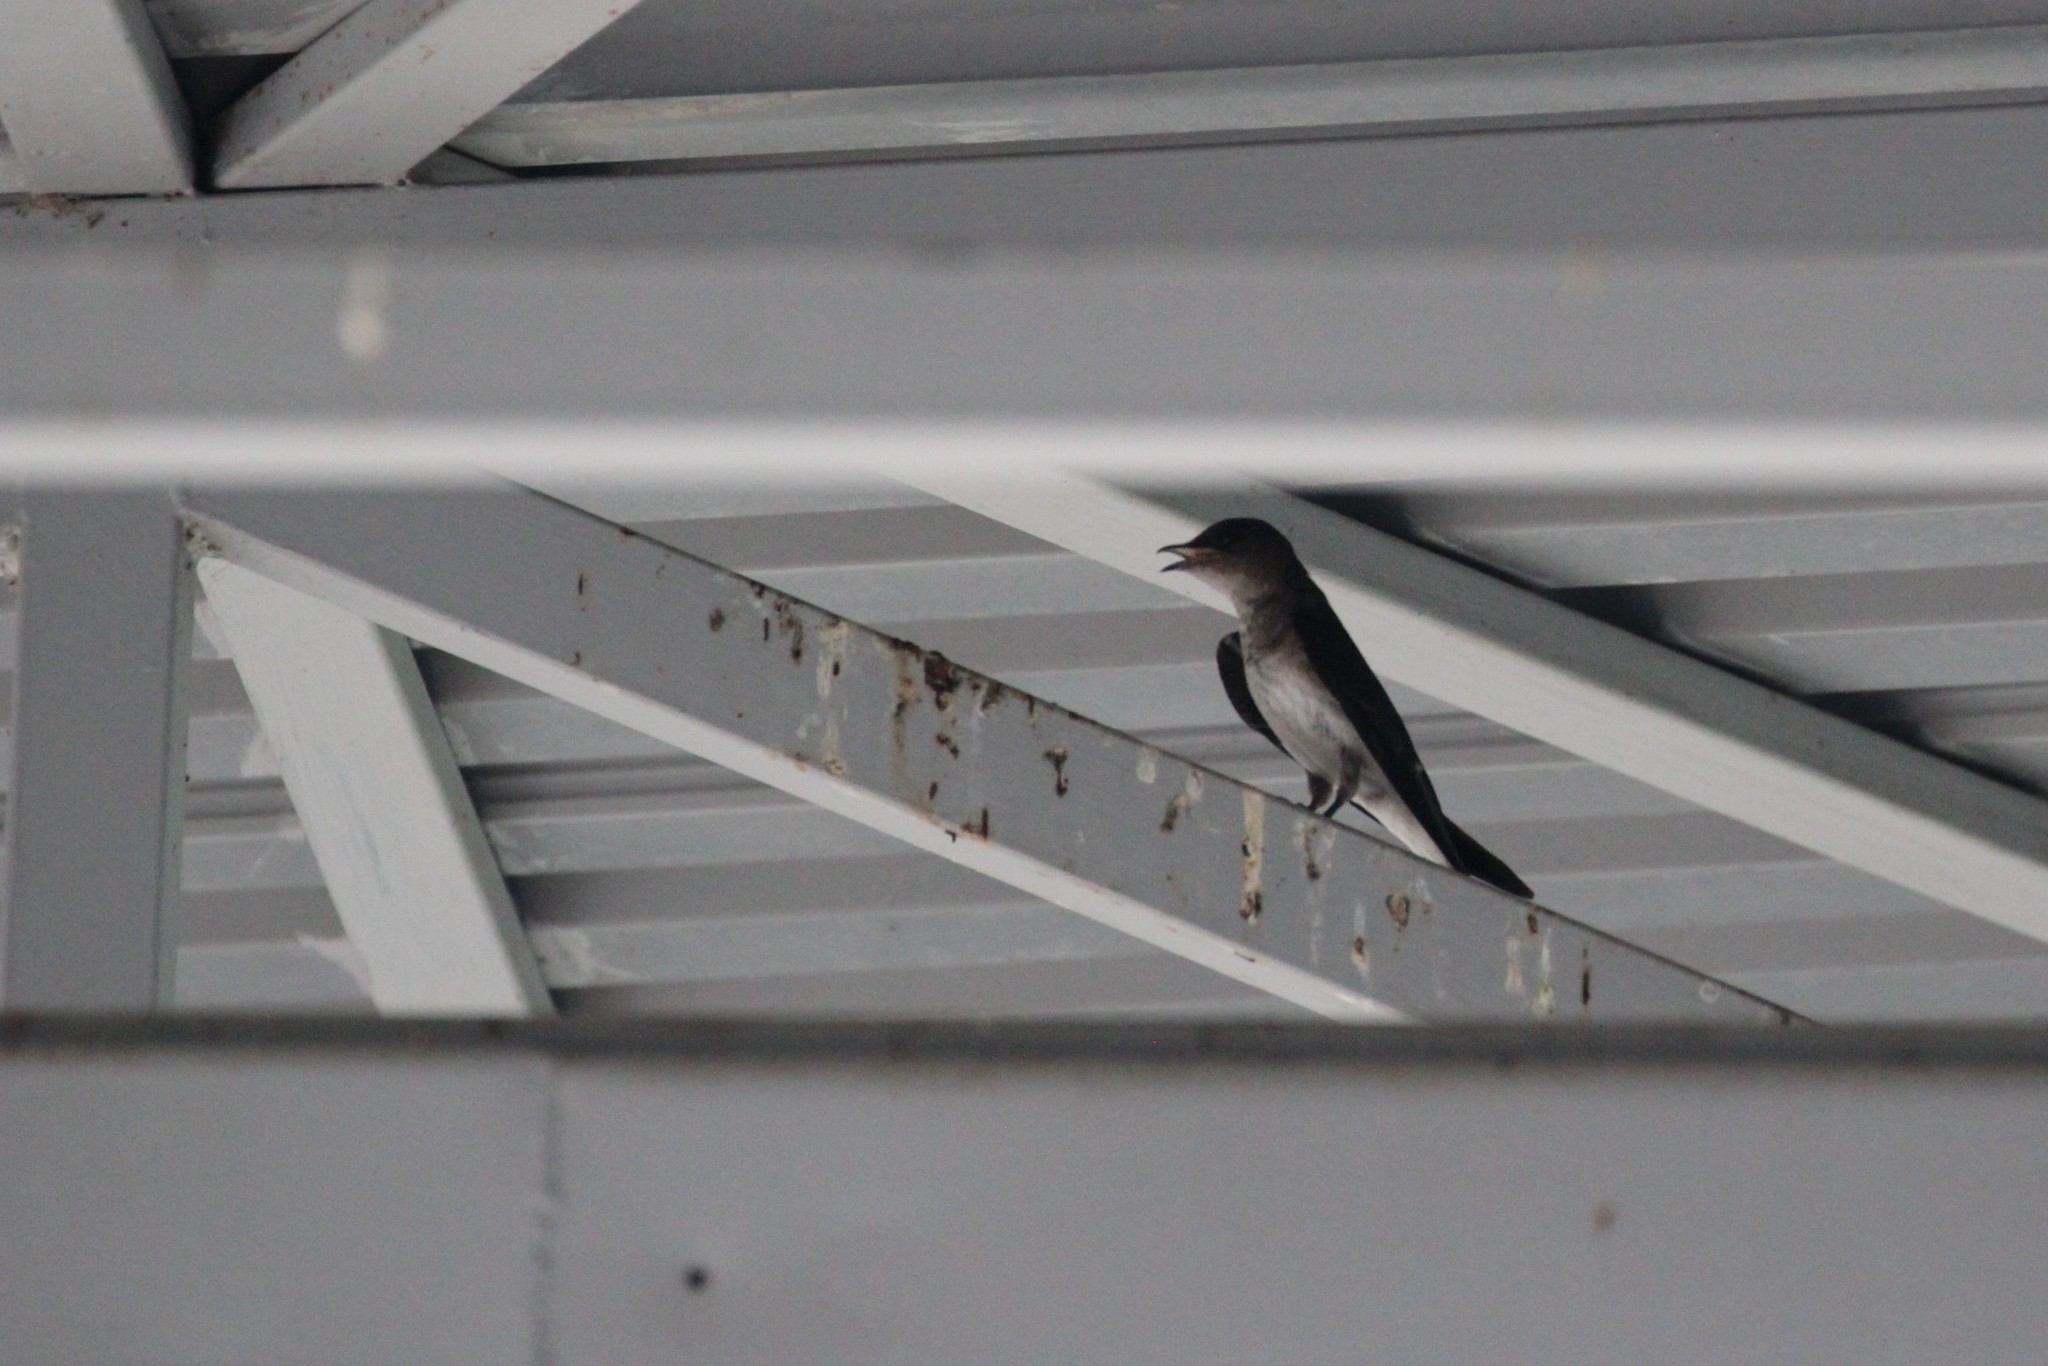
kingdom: Animalia
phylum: Chordata
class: Aves
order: Passeriformes
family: Hirundinidae
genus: Progne
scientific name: Progne chalybea
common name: Grey-breasted martin
